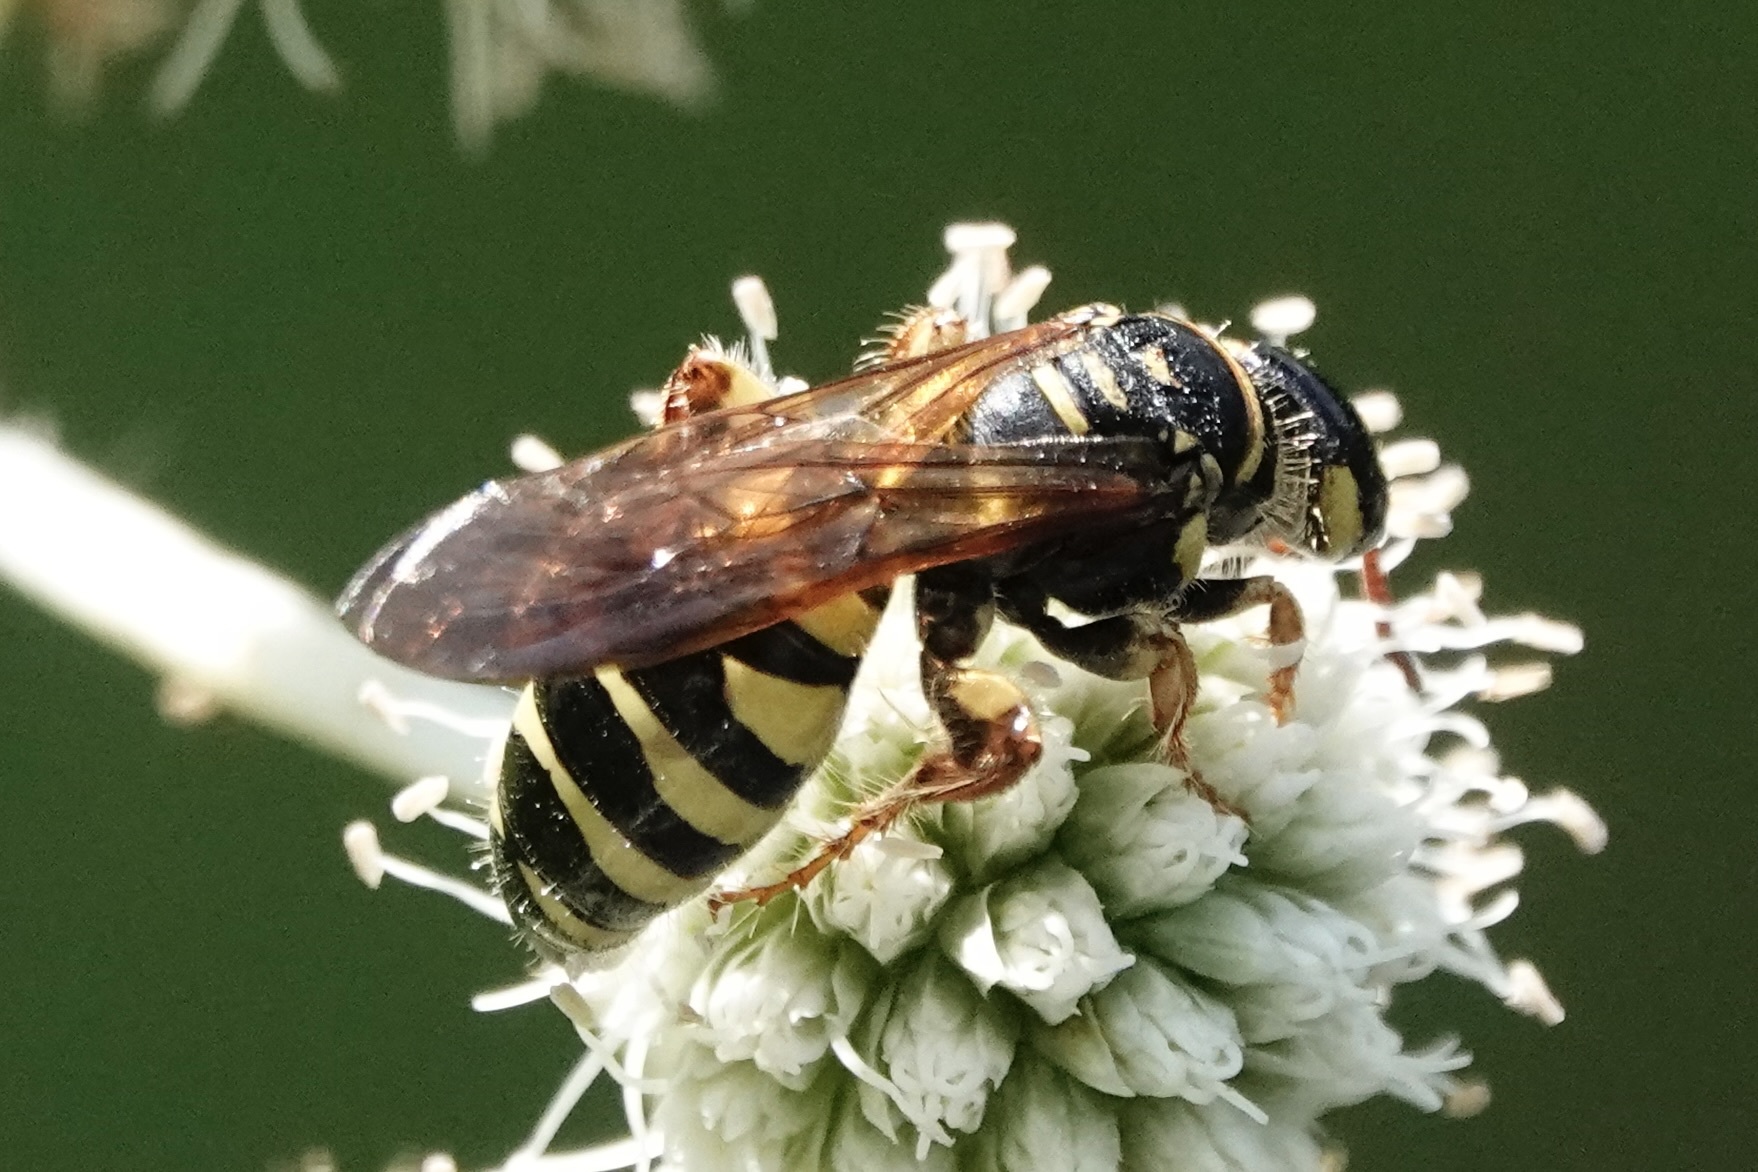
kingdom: Animalia
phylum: Arthropoda
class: Insecta
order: Hymenoptera
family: Tiphiidae
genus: Myzinum
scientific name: Myzinum quinquecinctum
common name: Five-banded thynnid wasp
